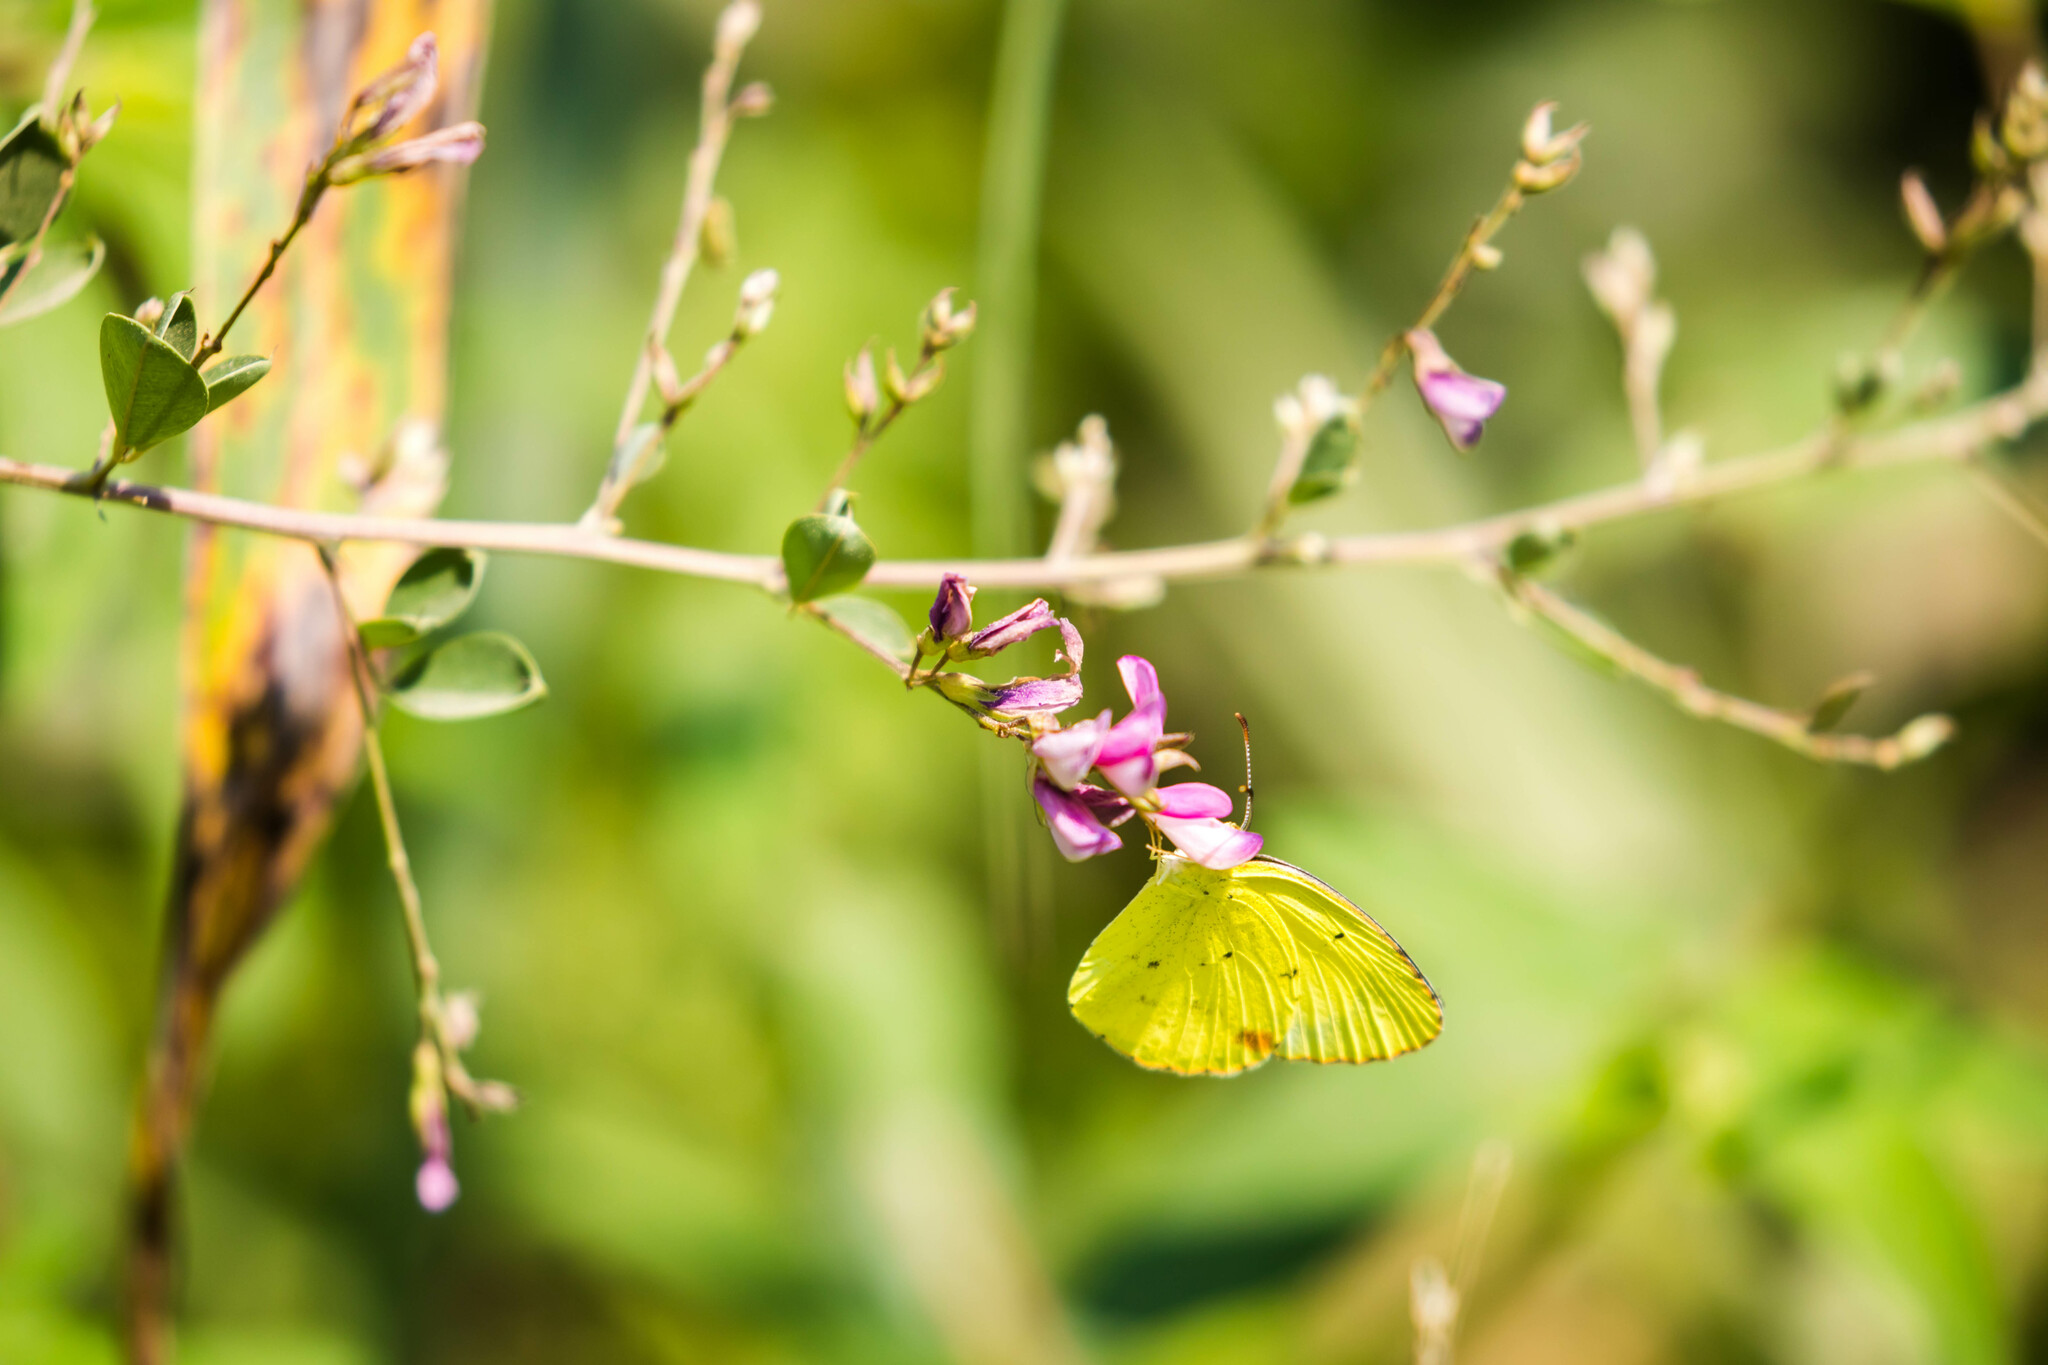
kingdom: Animalia
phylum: Arthropoda
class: Insecta
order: Lepidoptera
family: Pieridae
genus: Pyrisitia
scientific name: Pyrisitia lisa
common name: Little yellow
